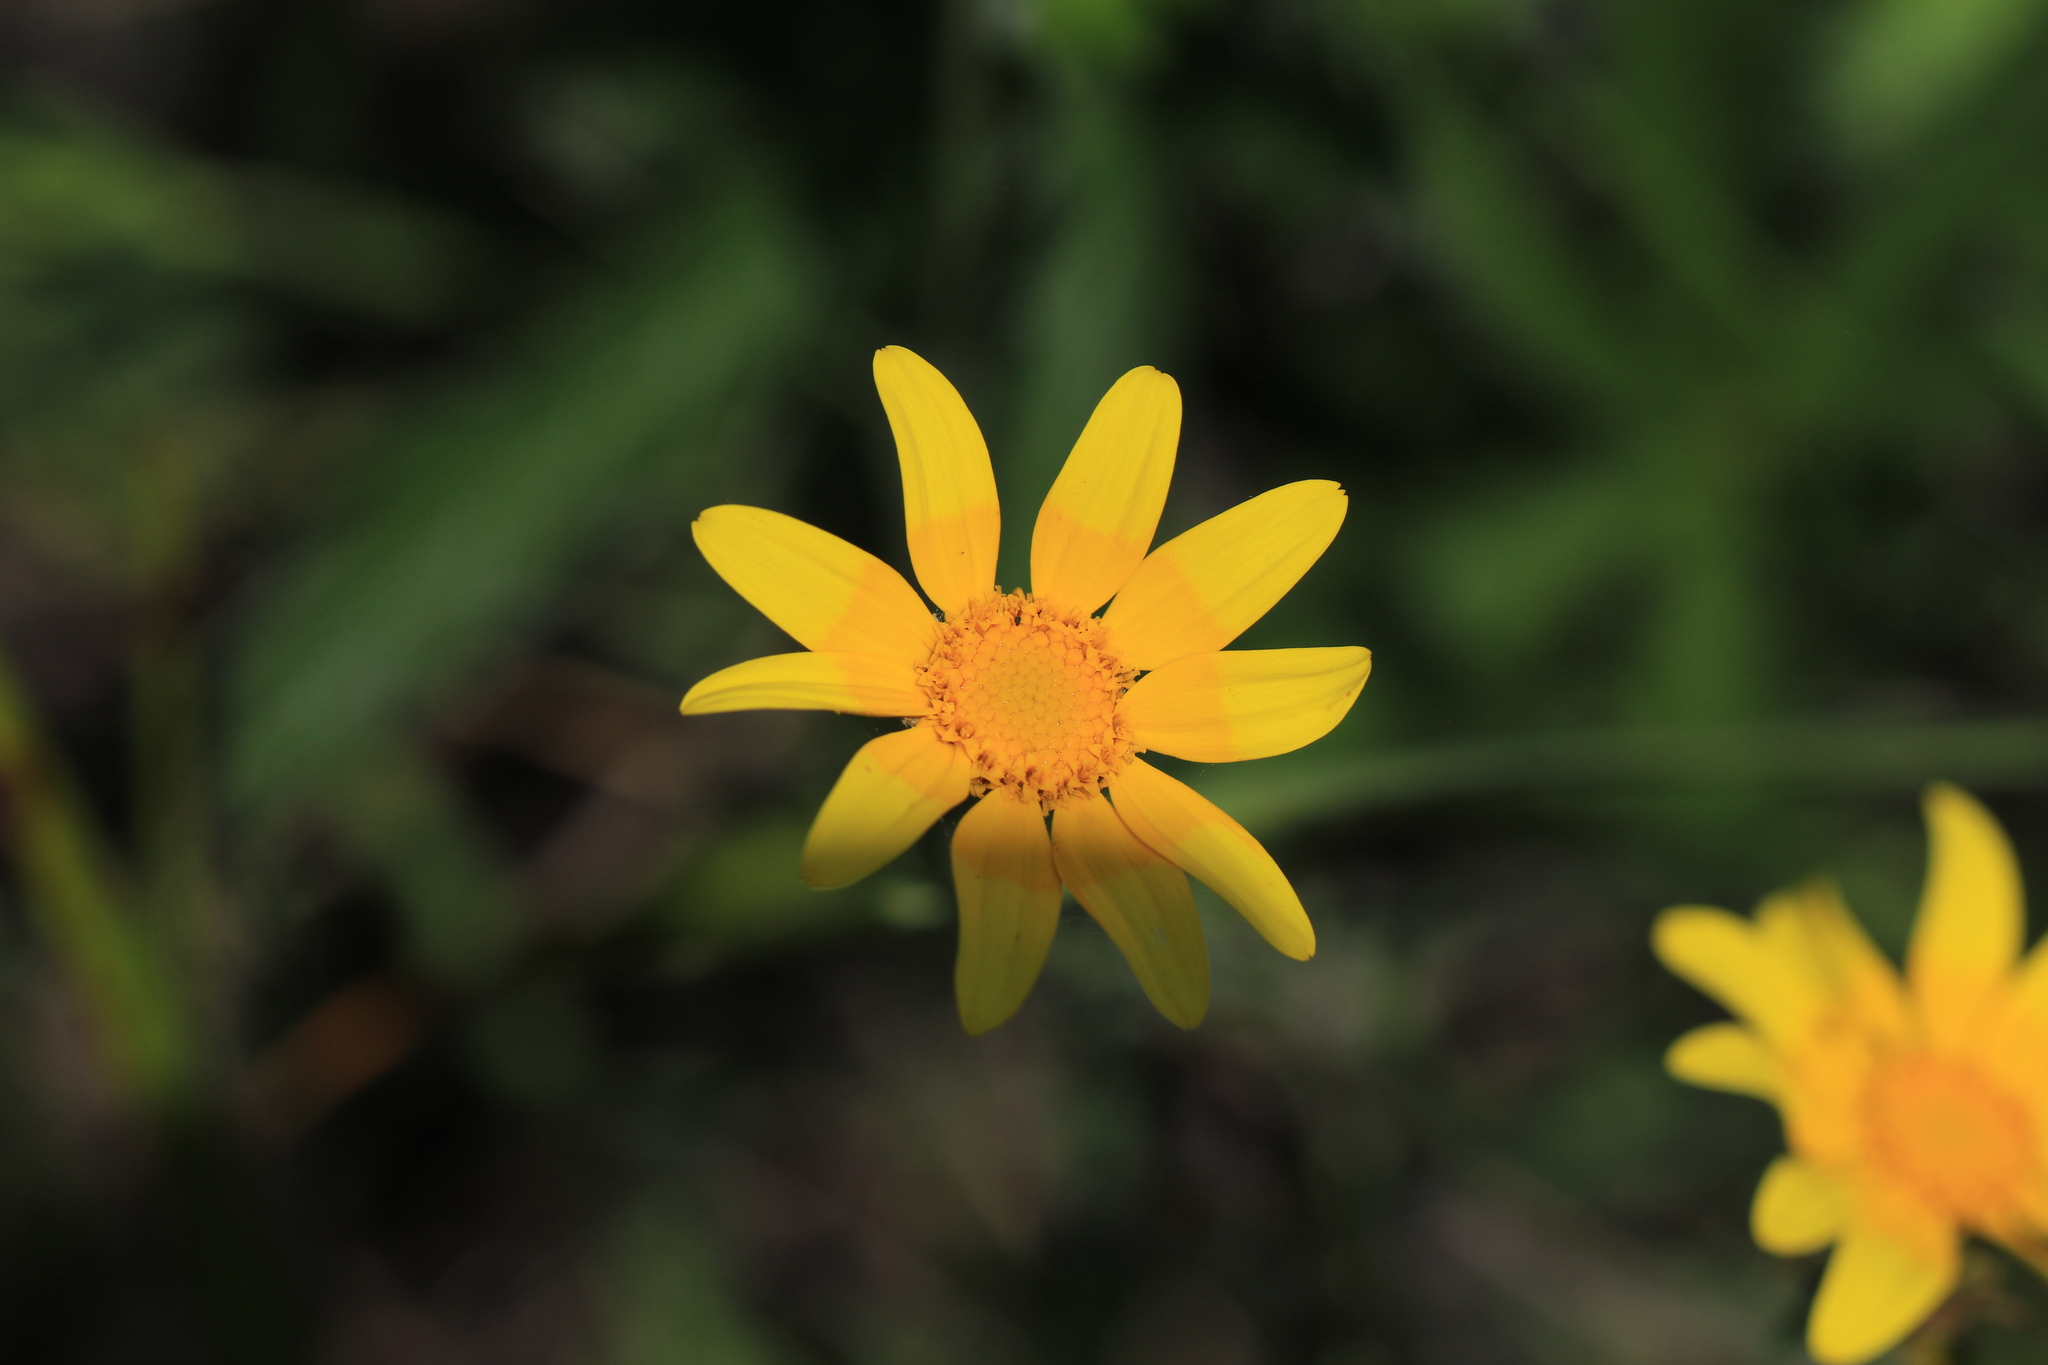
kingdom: Plantae
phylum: Tracheophyta
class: Magnoliopsida
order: Asterales
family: Asteraceae
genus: Eriophyllum
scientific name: Eriophyllum lanatum
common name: Common woolly-sunflower
